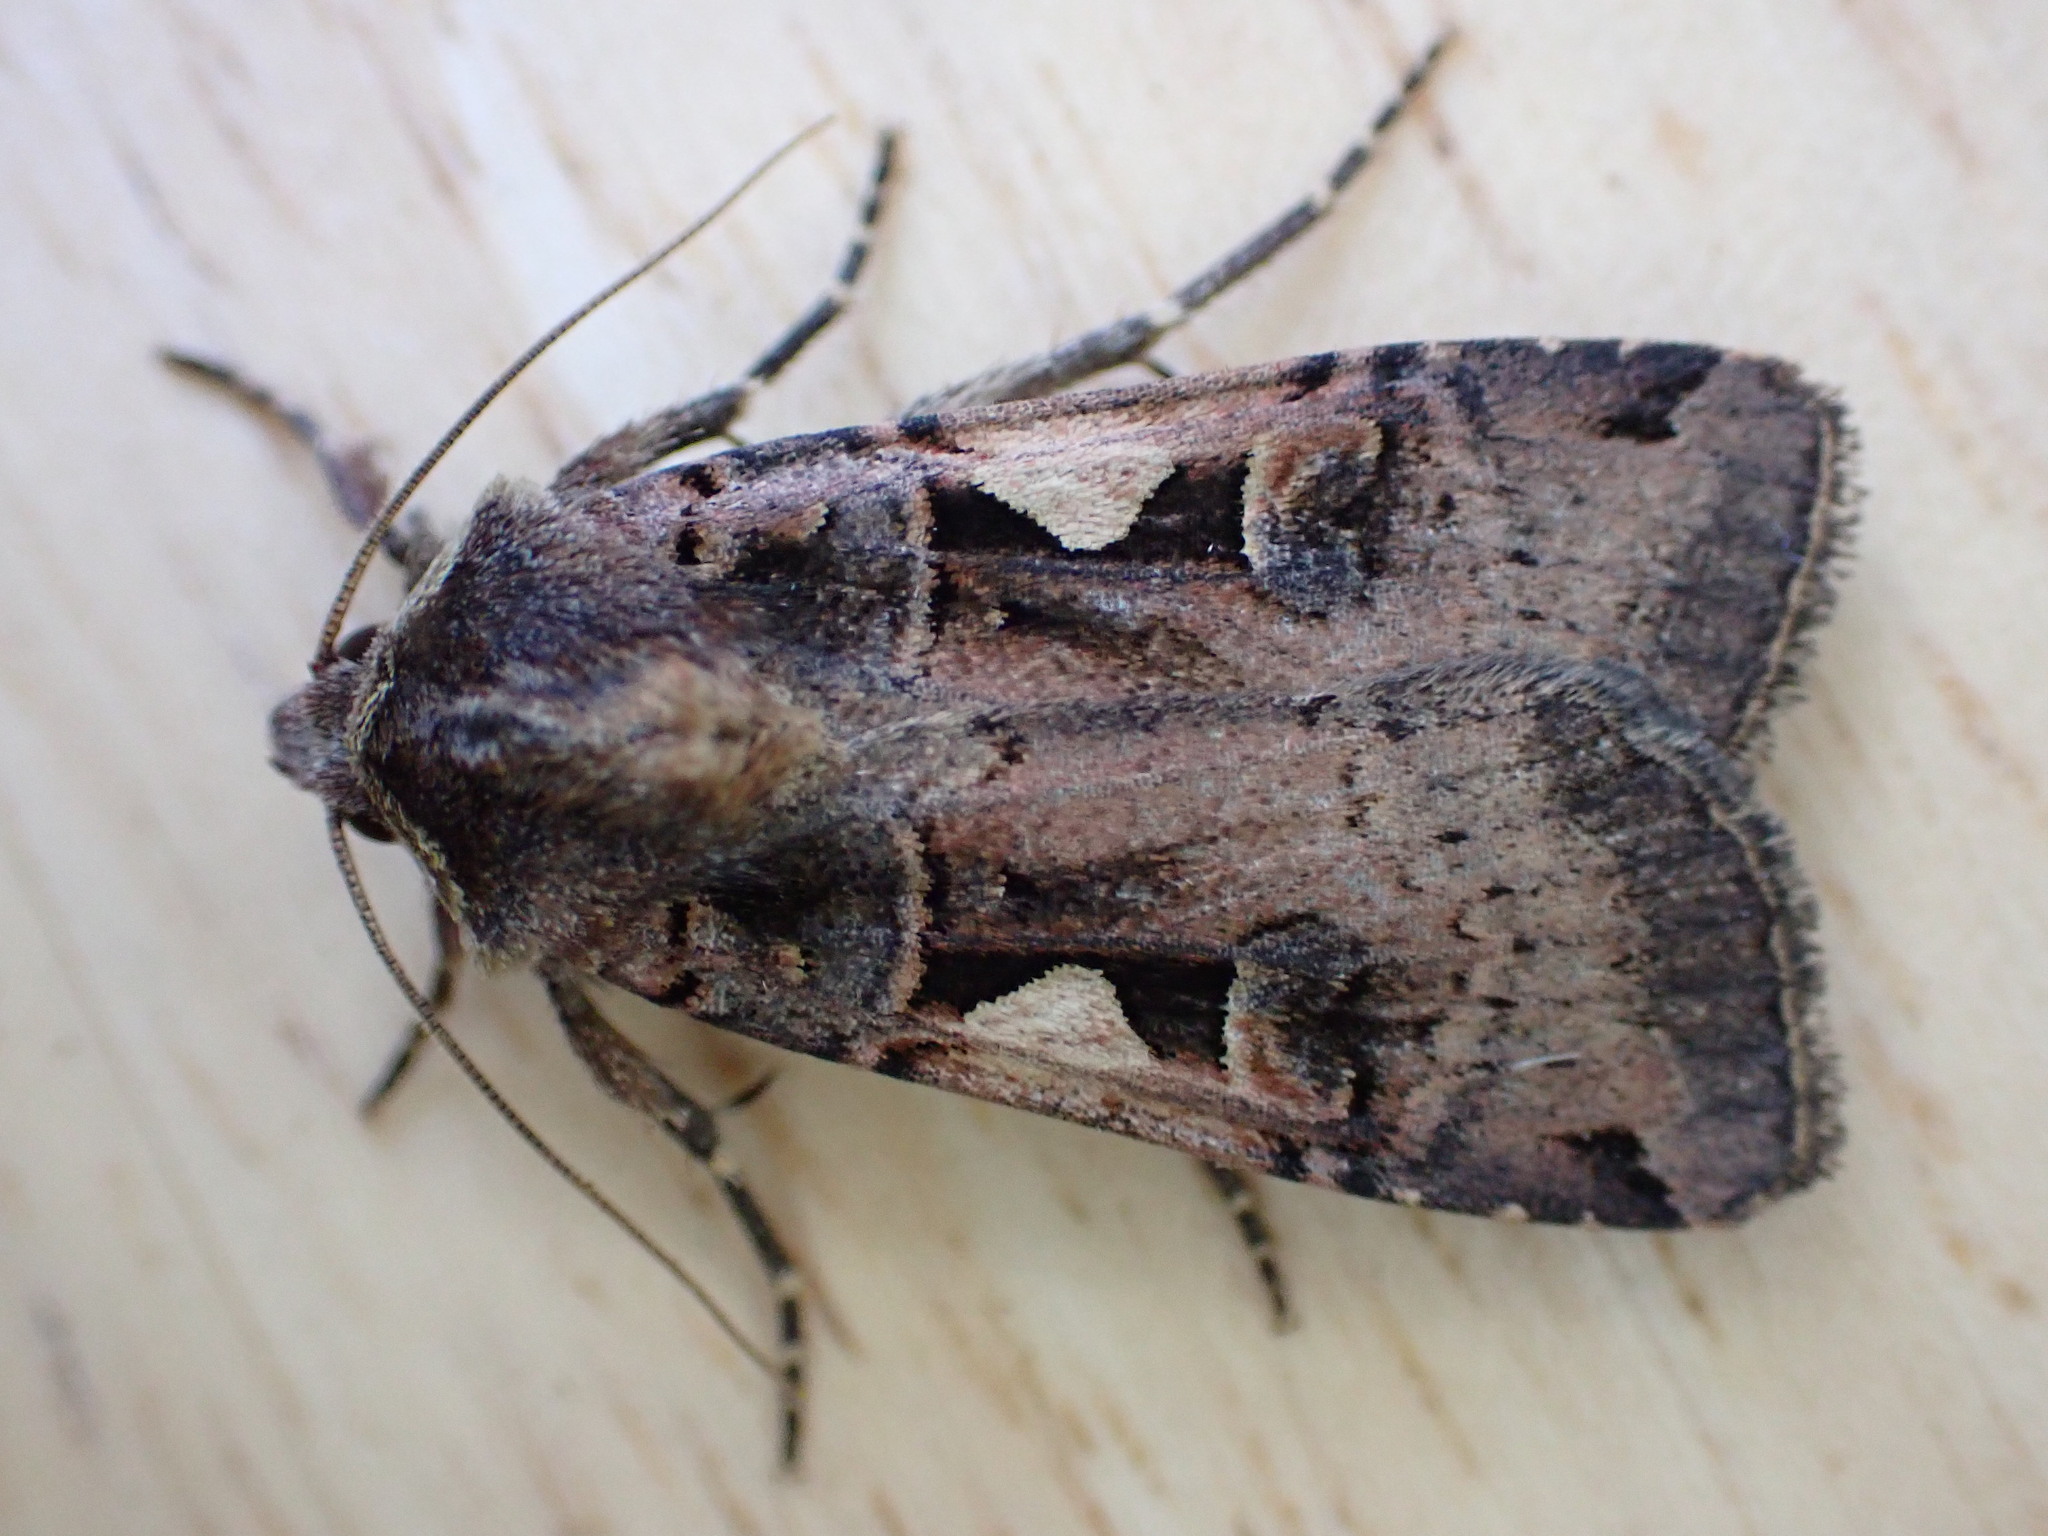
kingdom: Animalia
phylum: Arthropoda
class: Insecta
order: Lepidoptera
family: Noctuidae
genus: Xestia
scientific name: Xestia c-nigrum
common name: Setaceous hebrew character
